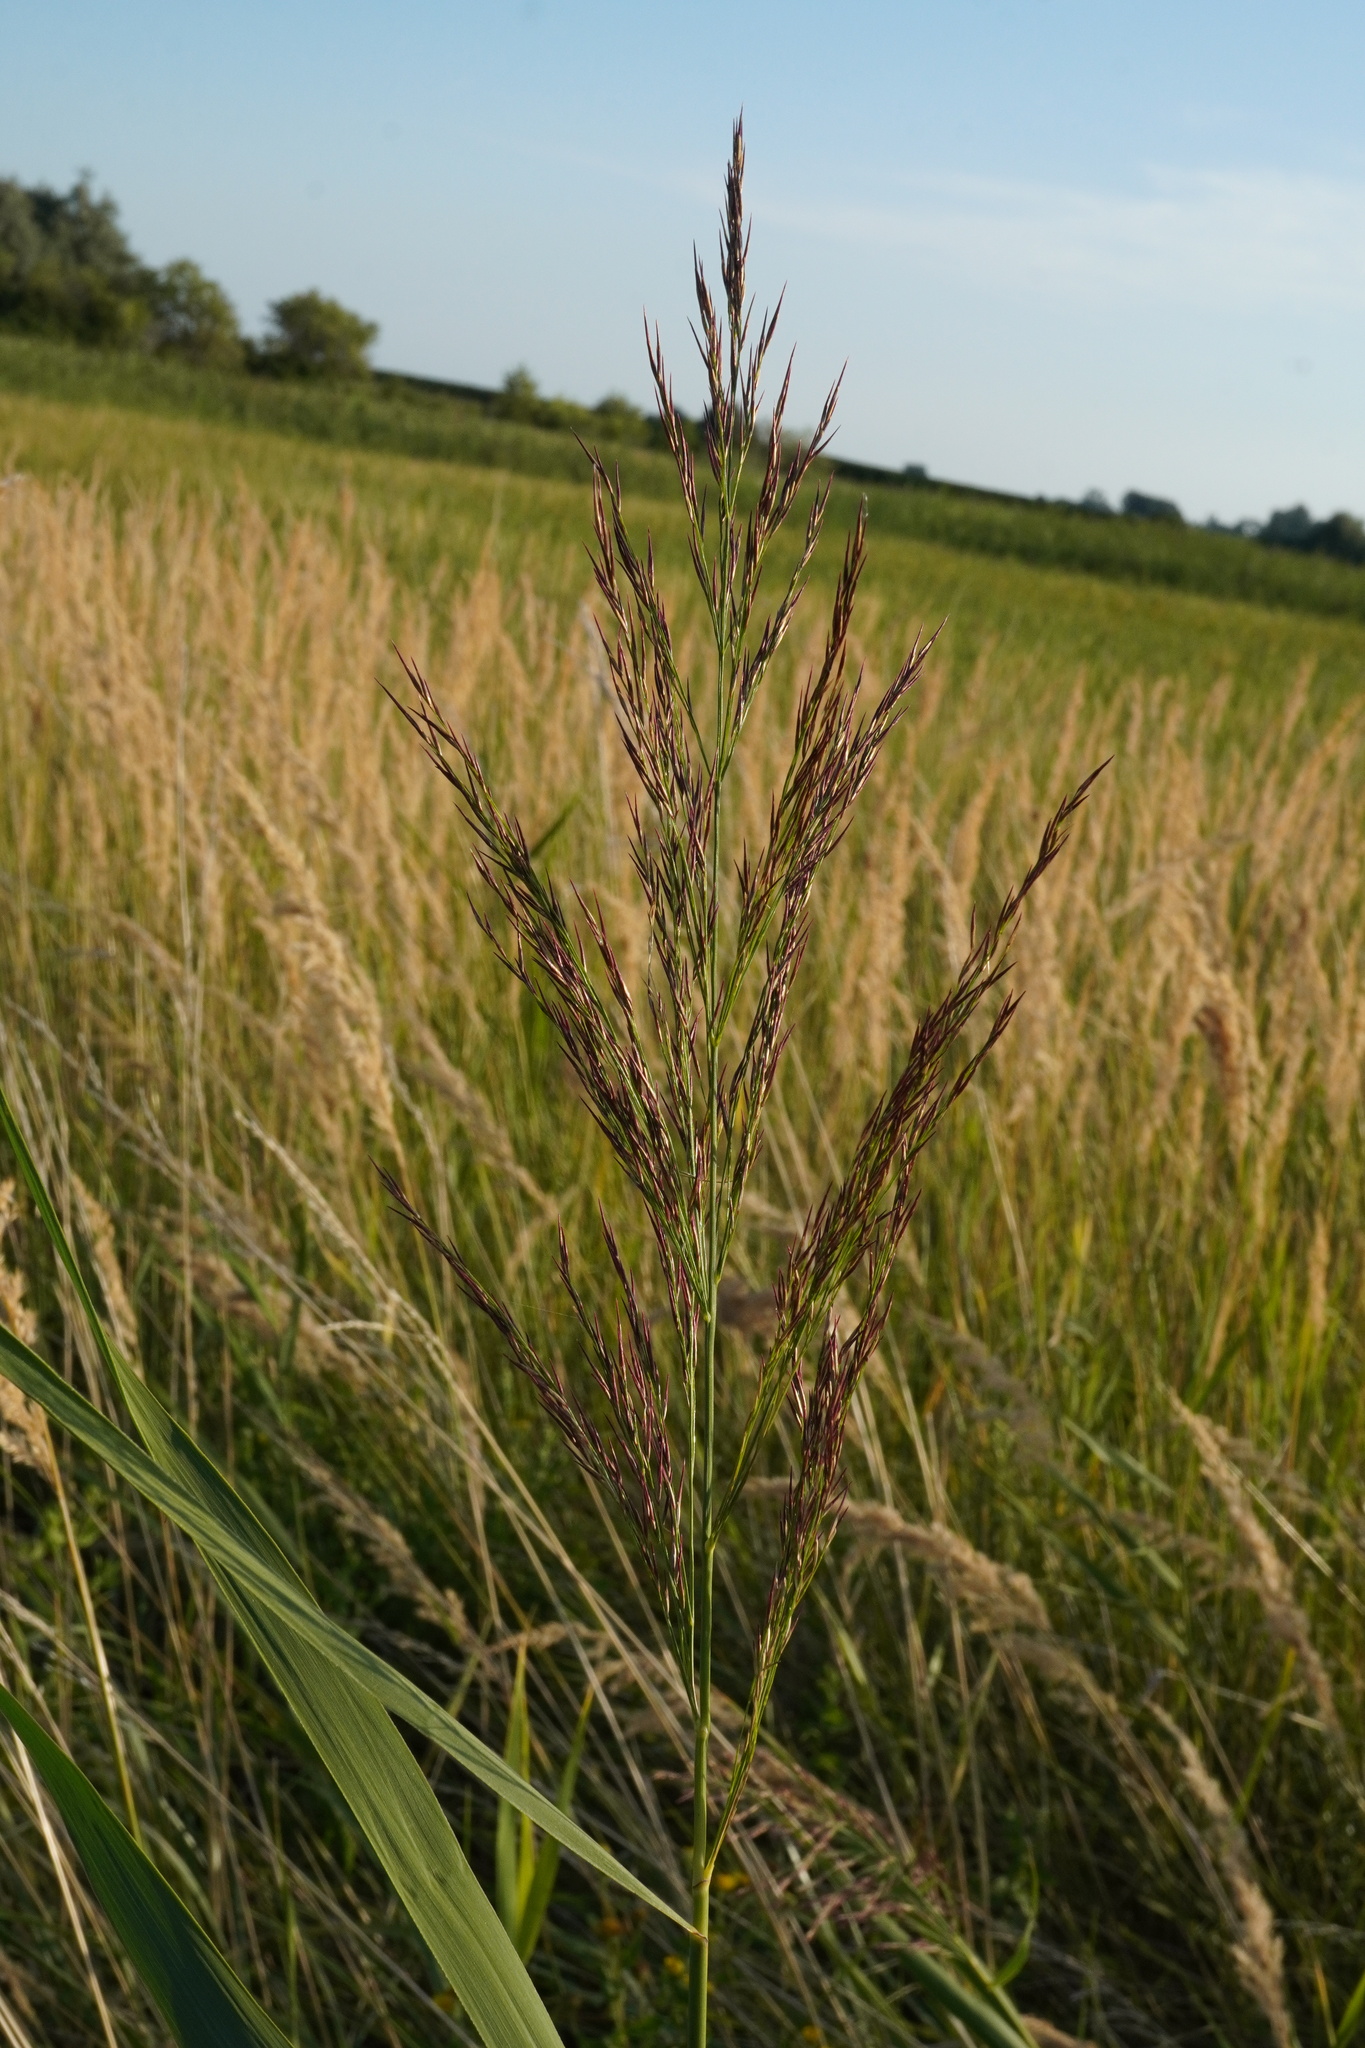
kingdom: Plantae
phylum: Tracheophyta
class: Liliopsida
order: Poales
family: Poaceae
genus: Phragmites
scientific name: Phragmites australis
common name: Common reed
